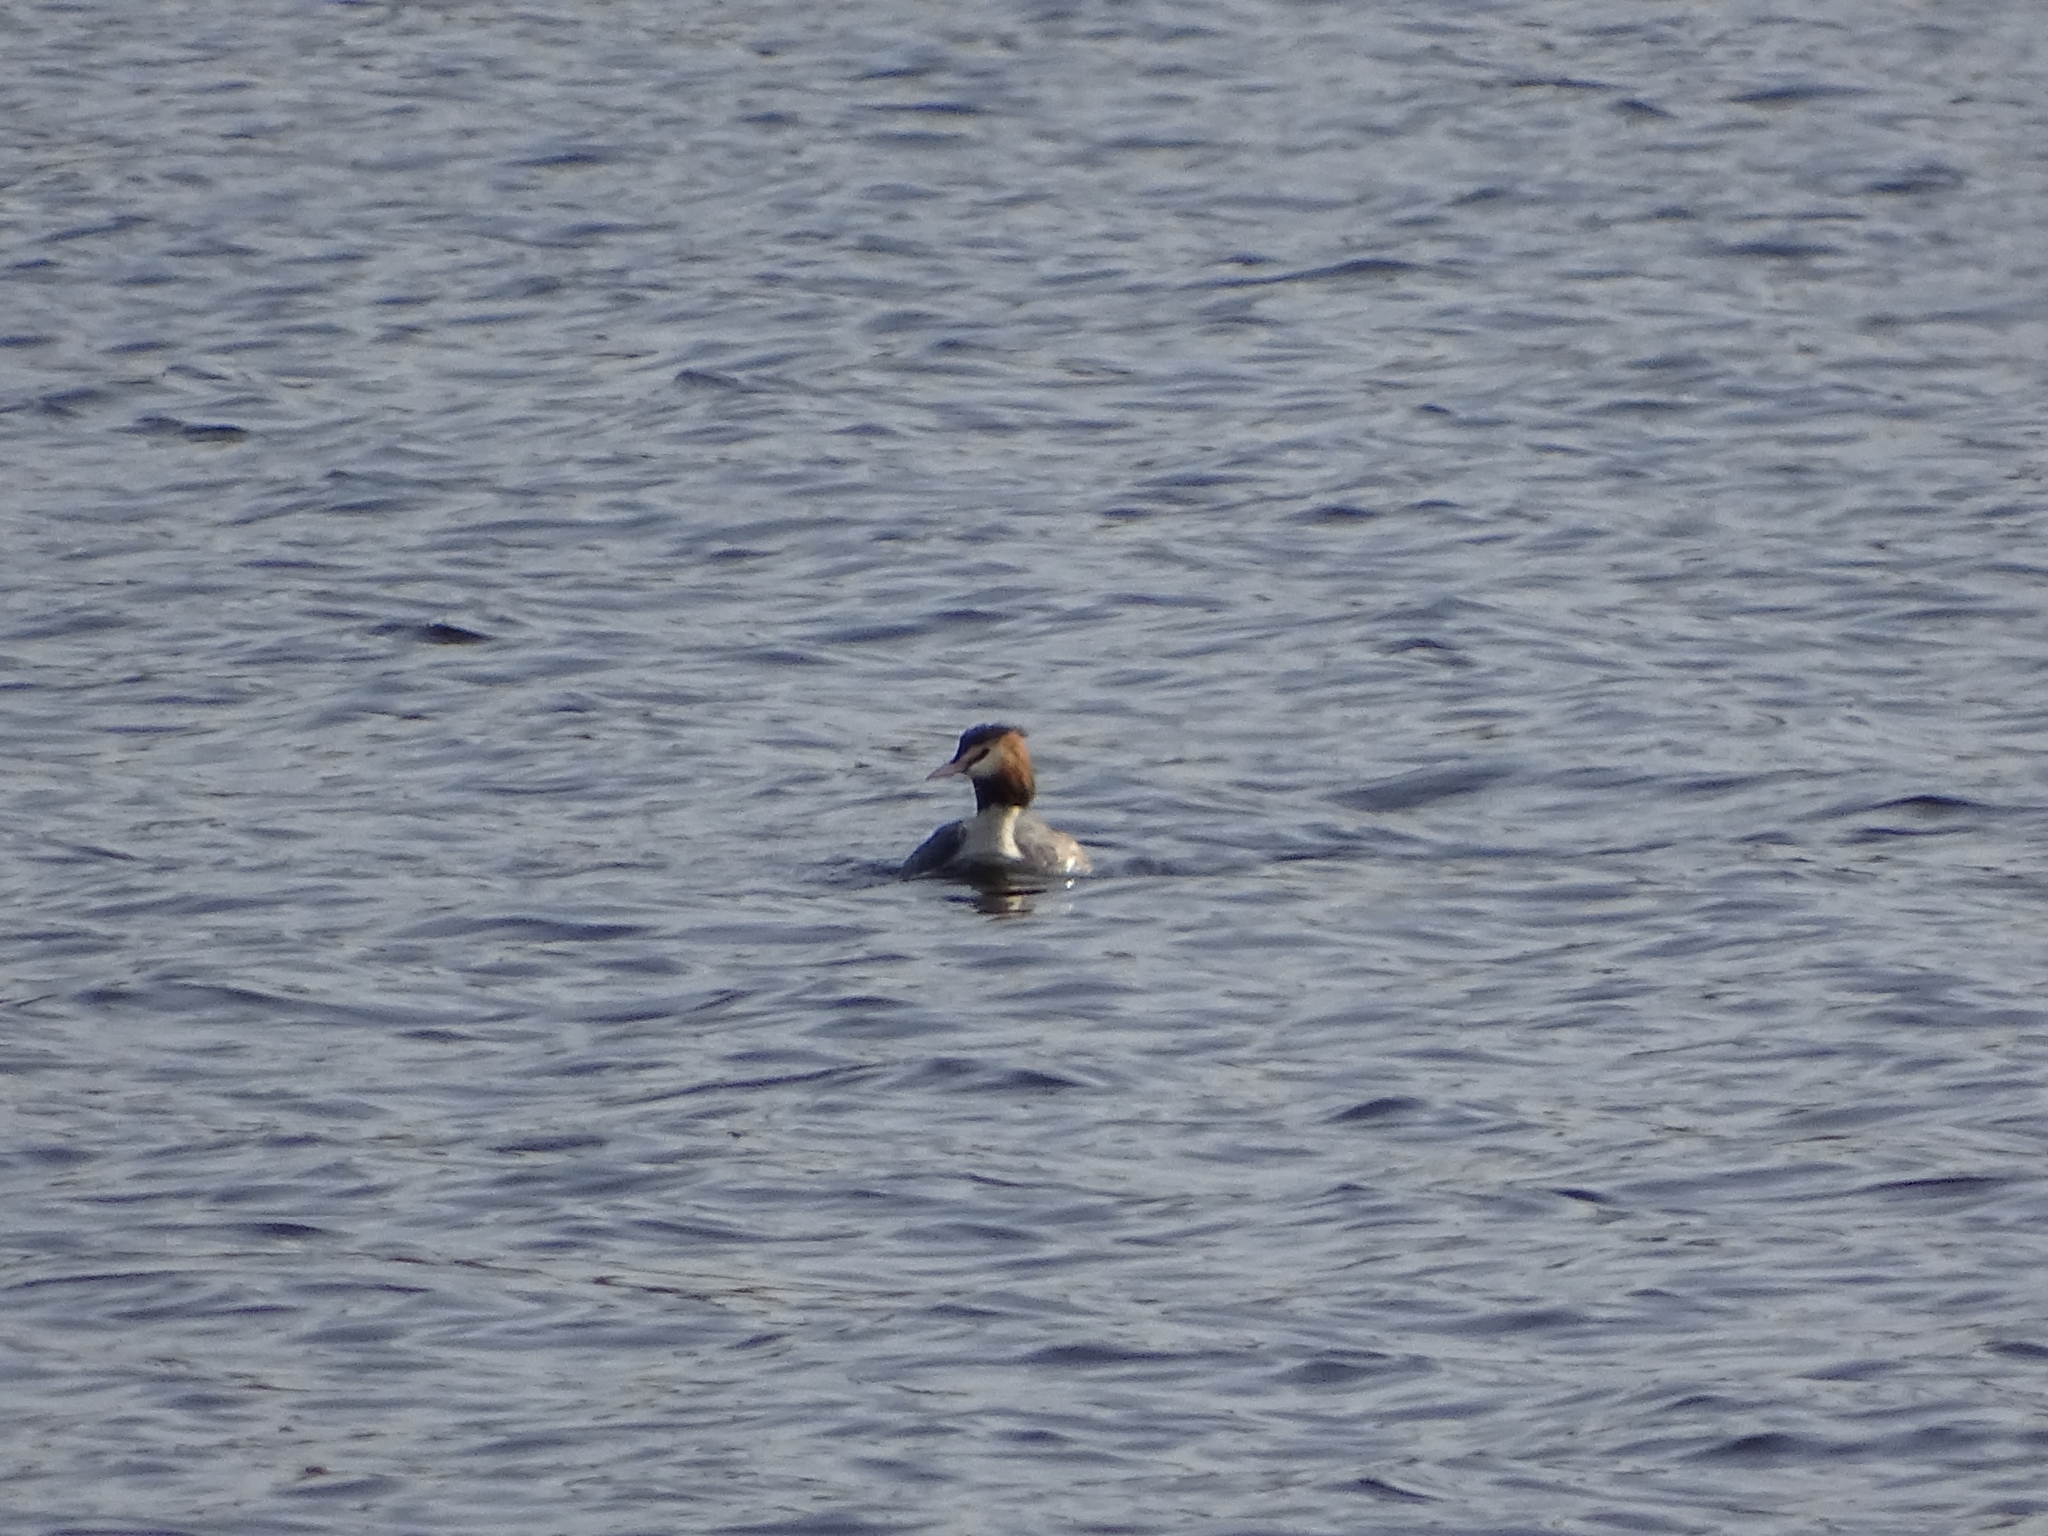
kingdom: Animalia
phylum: Chordata
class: Aves
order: Podicipediformes
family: Podicipedidae
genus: Podiceps
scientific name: Podiceps cristatus
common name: Great crested grebe
